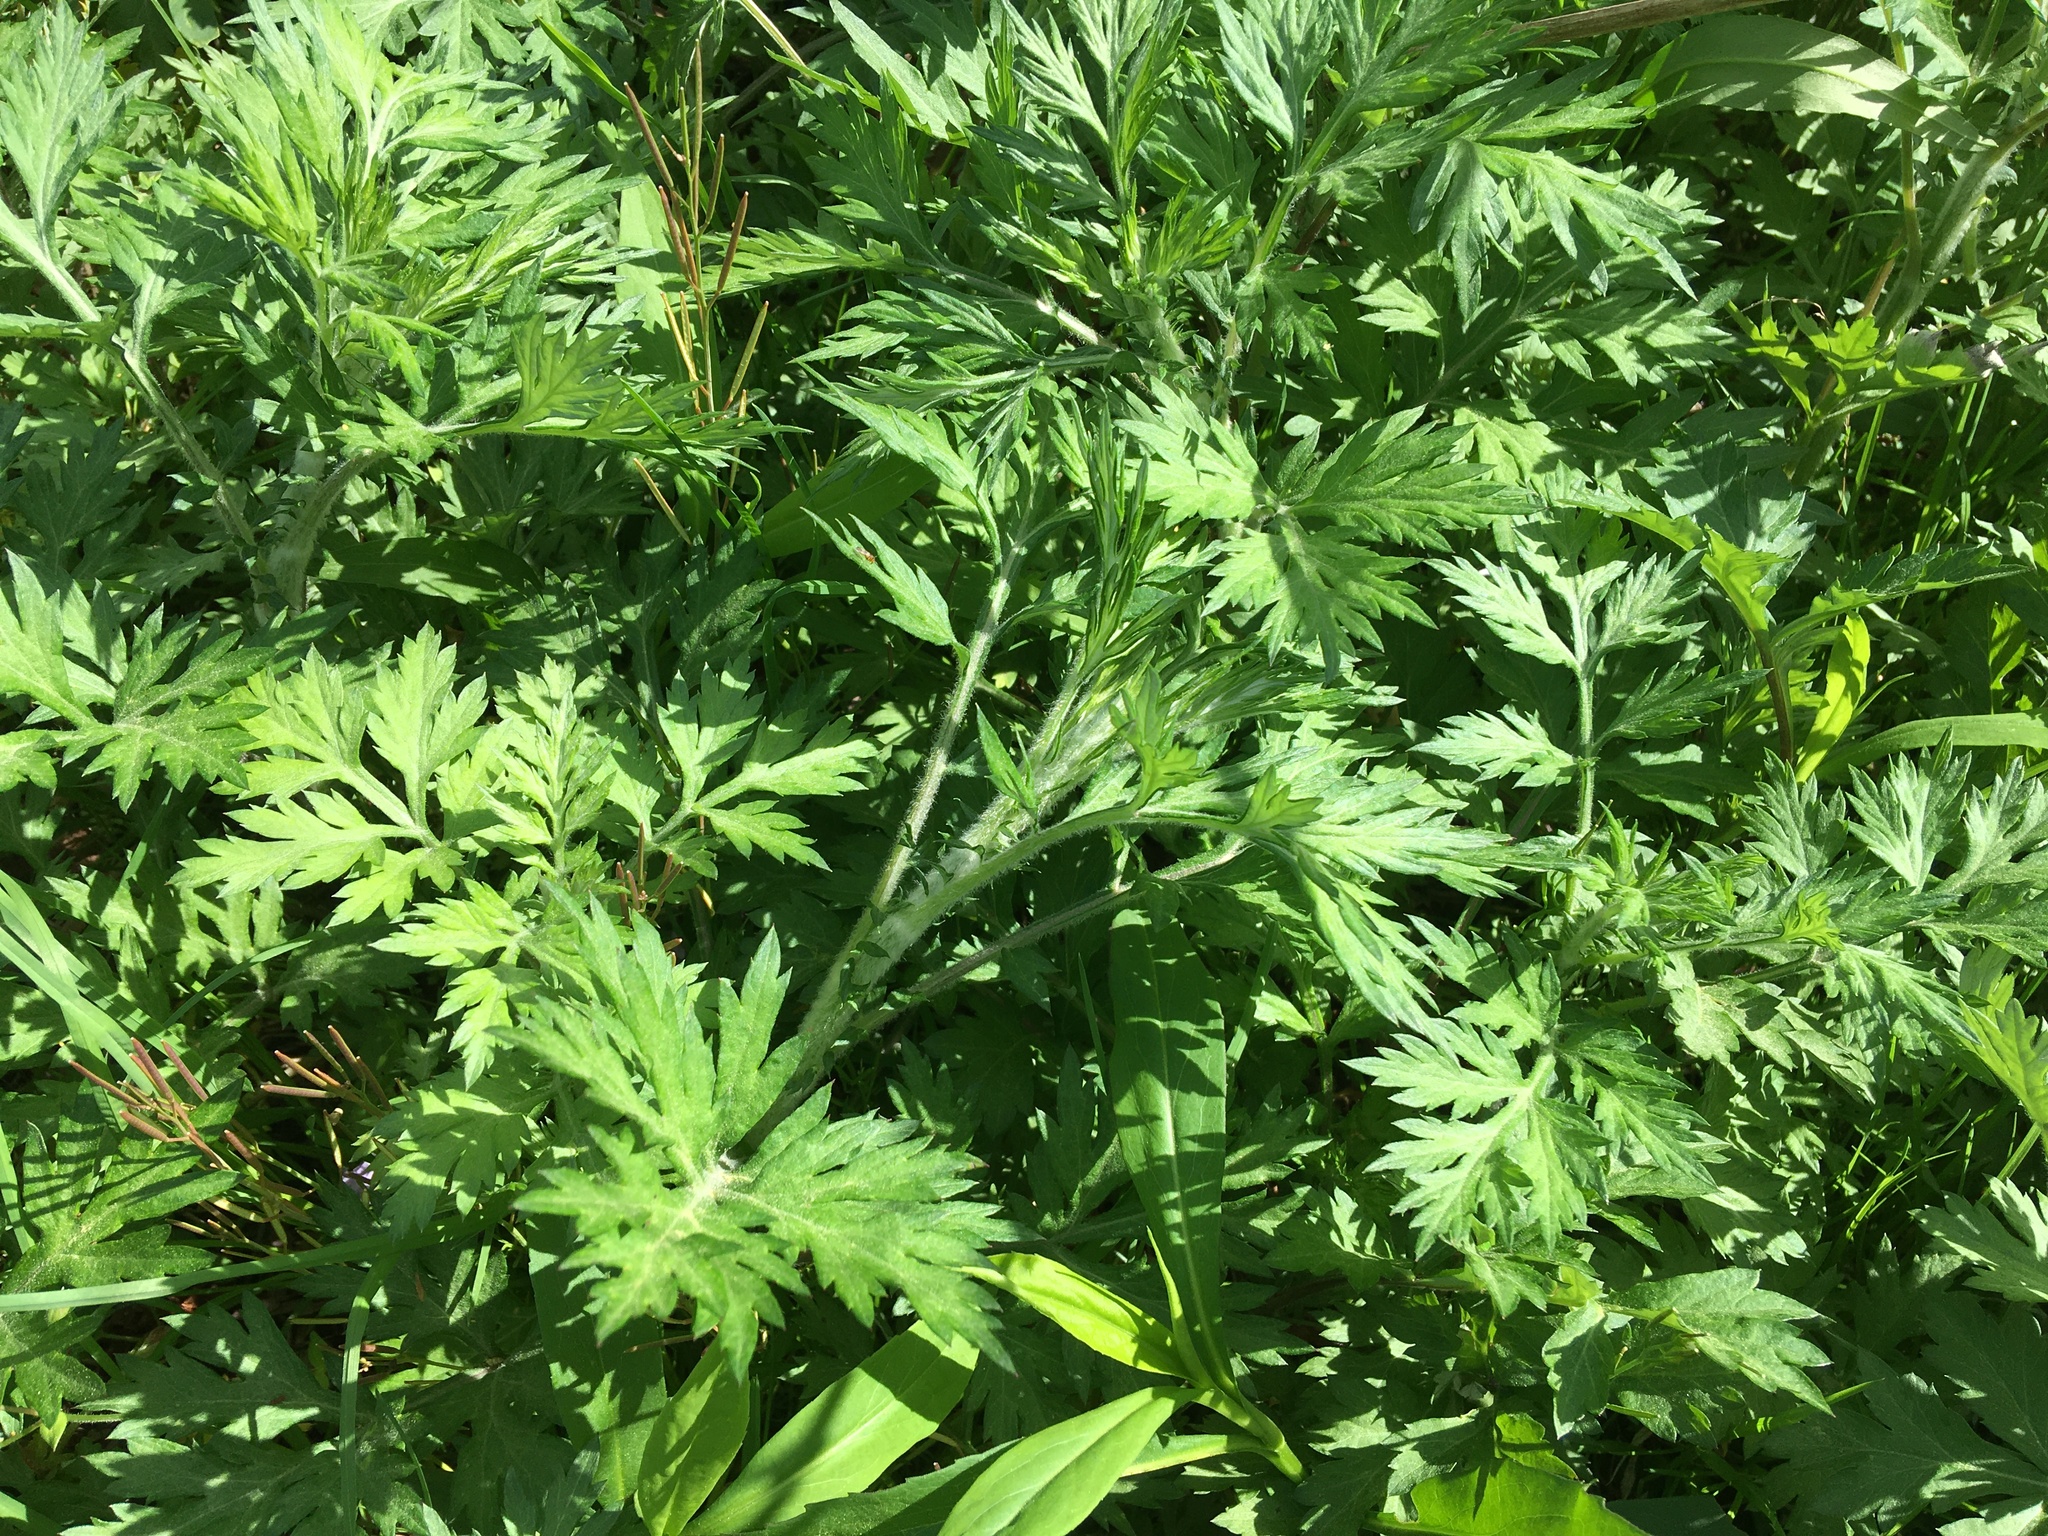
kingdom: Plantae
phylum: Tracheophyta
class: Magnoliopsida
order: Asterales
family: Asteraceae
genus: Artemisia
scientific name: Artemisia vulgaris
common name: Mugwort
